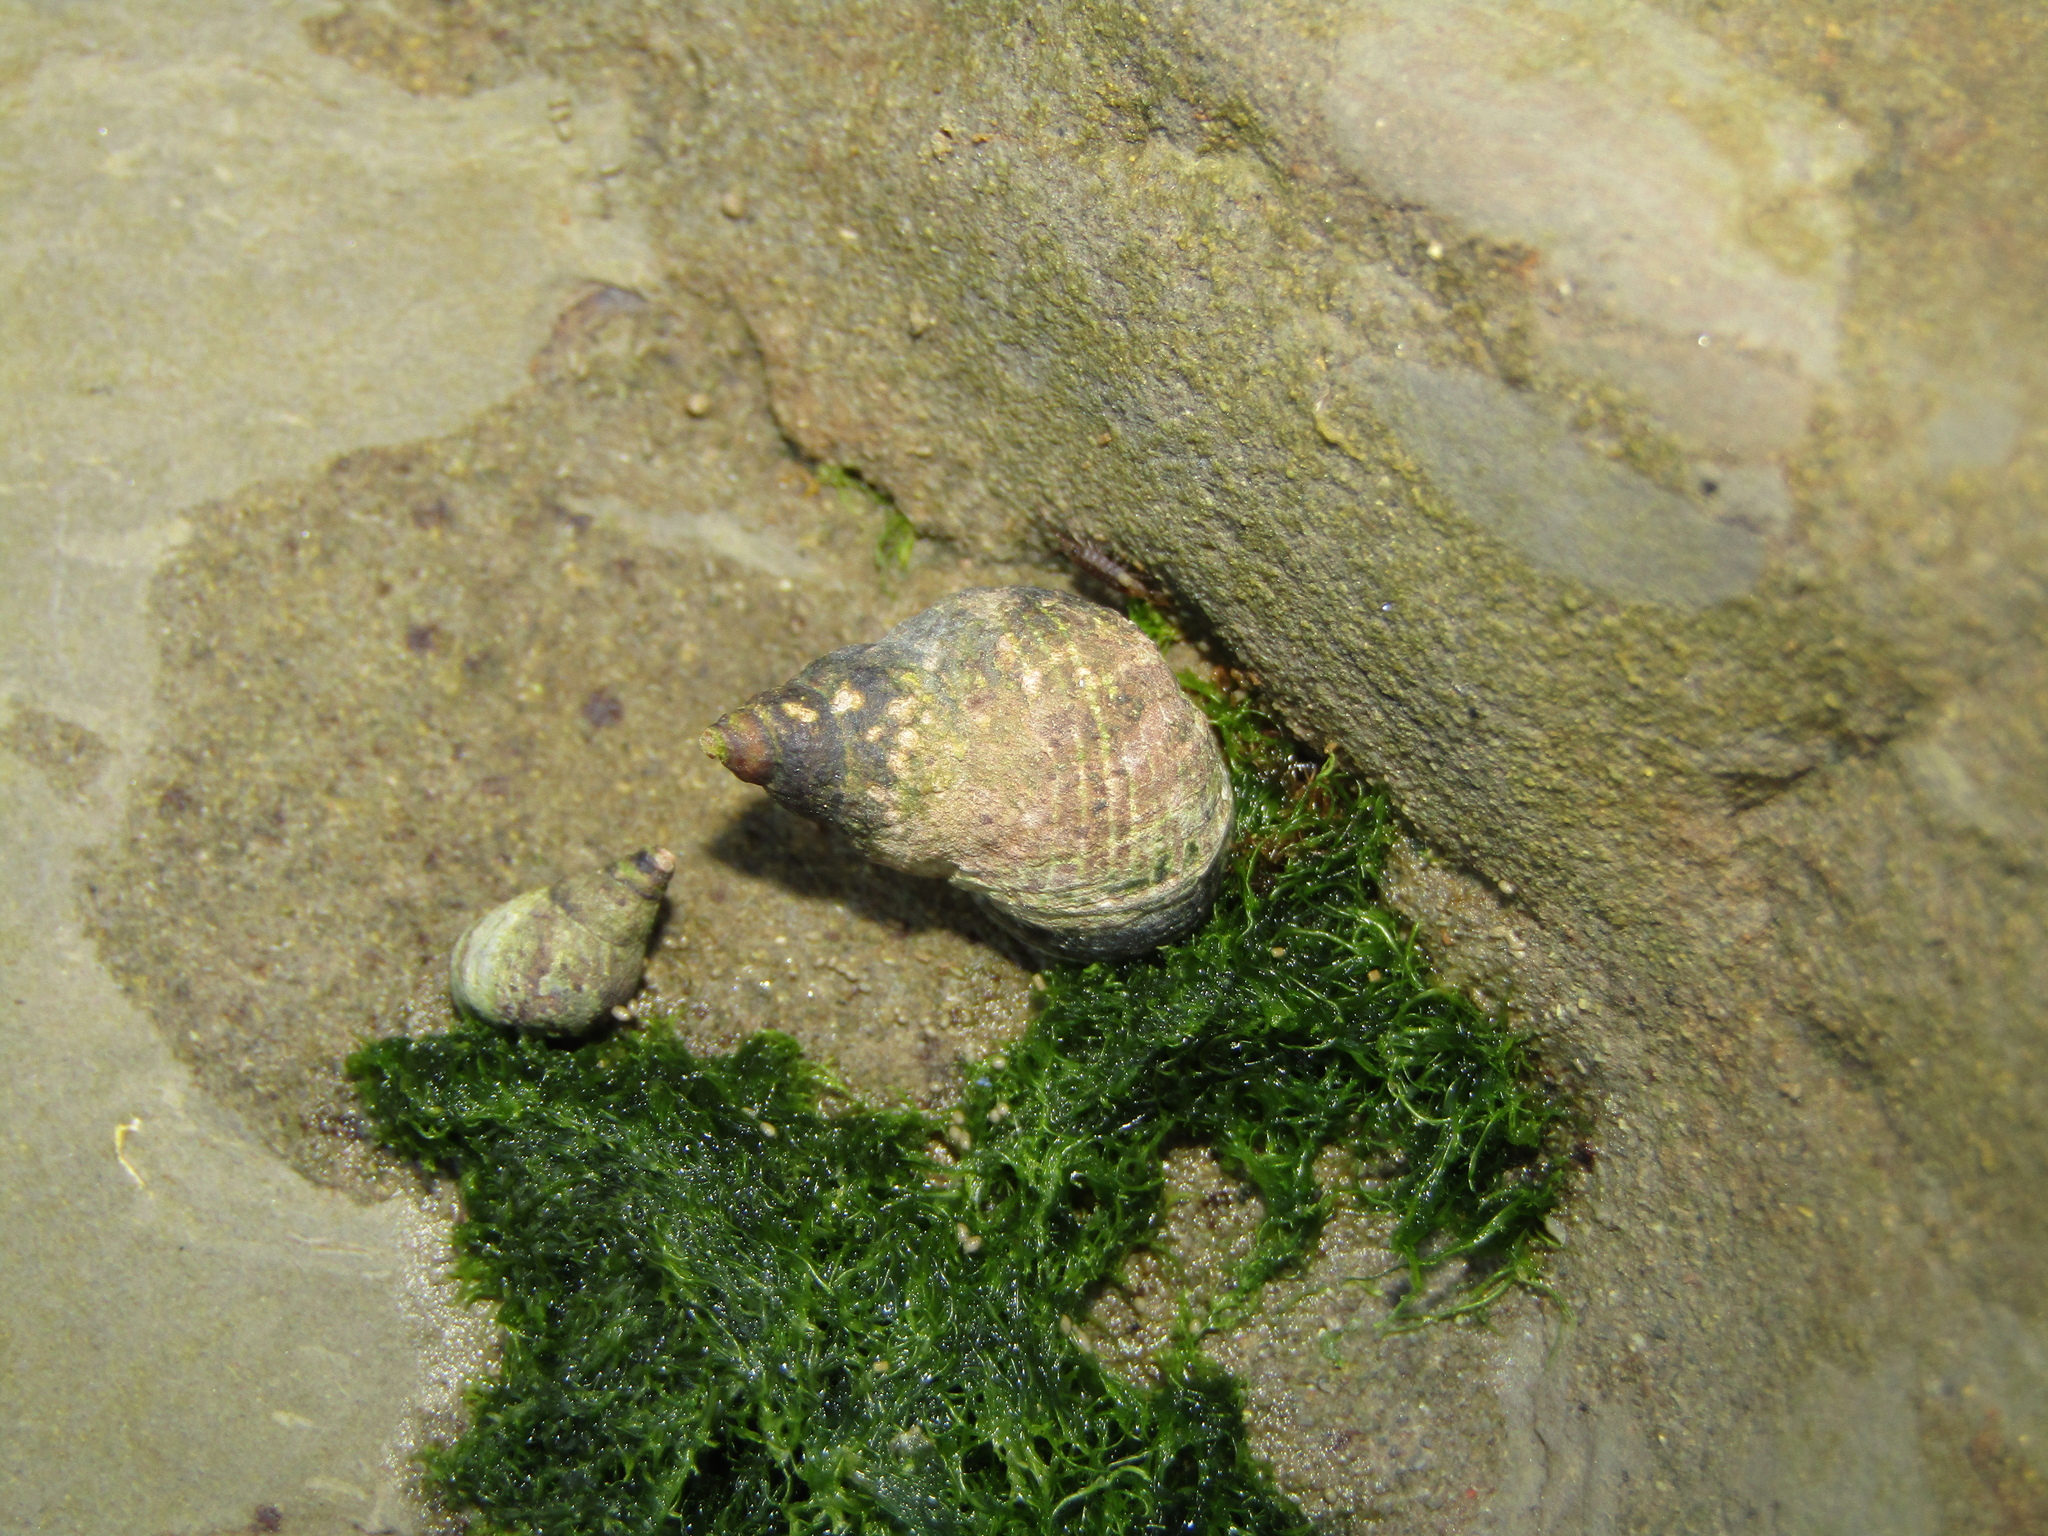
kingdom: Animalia
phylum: Mollusca
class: Gastropoda
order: Littorinimorpha
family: Littorinidae
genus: Austrolittorina
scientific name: Austrolittorina cincta
